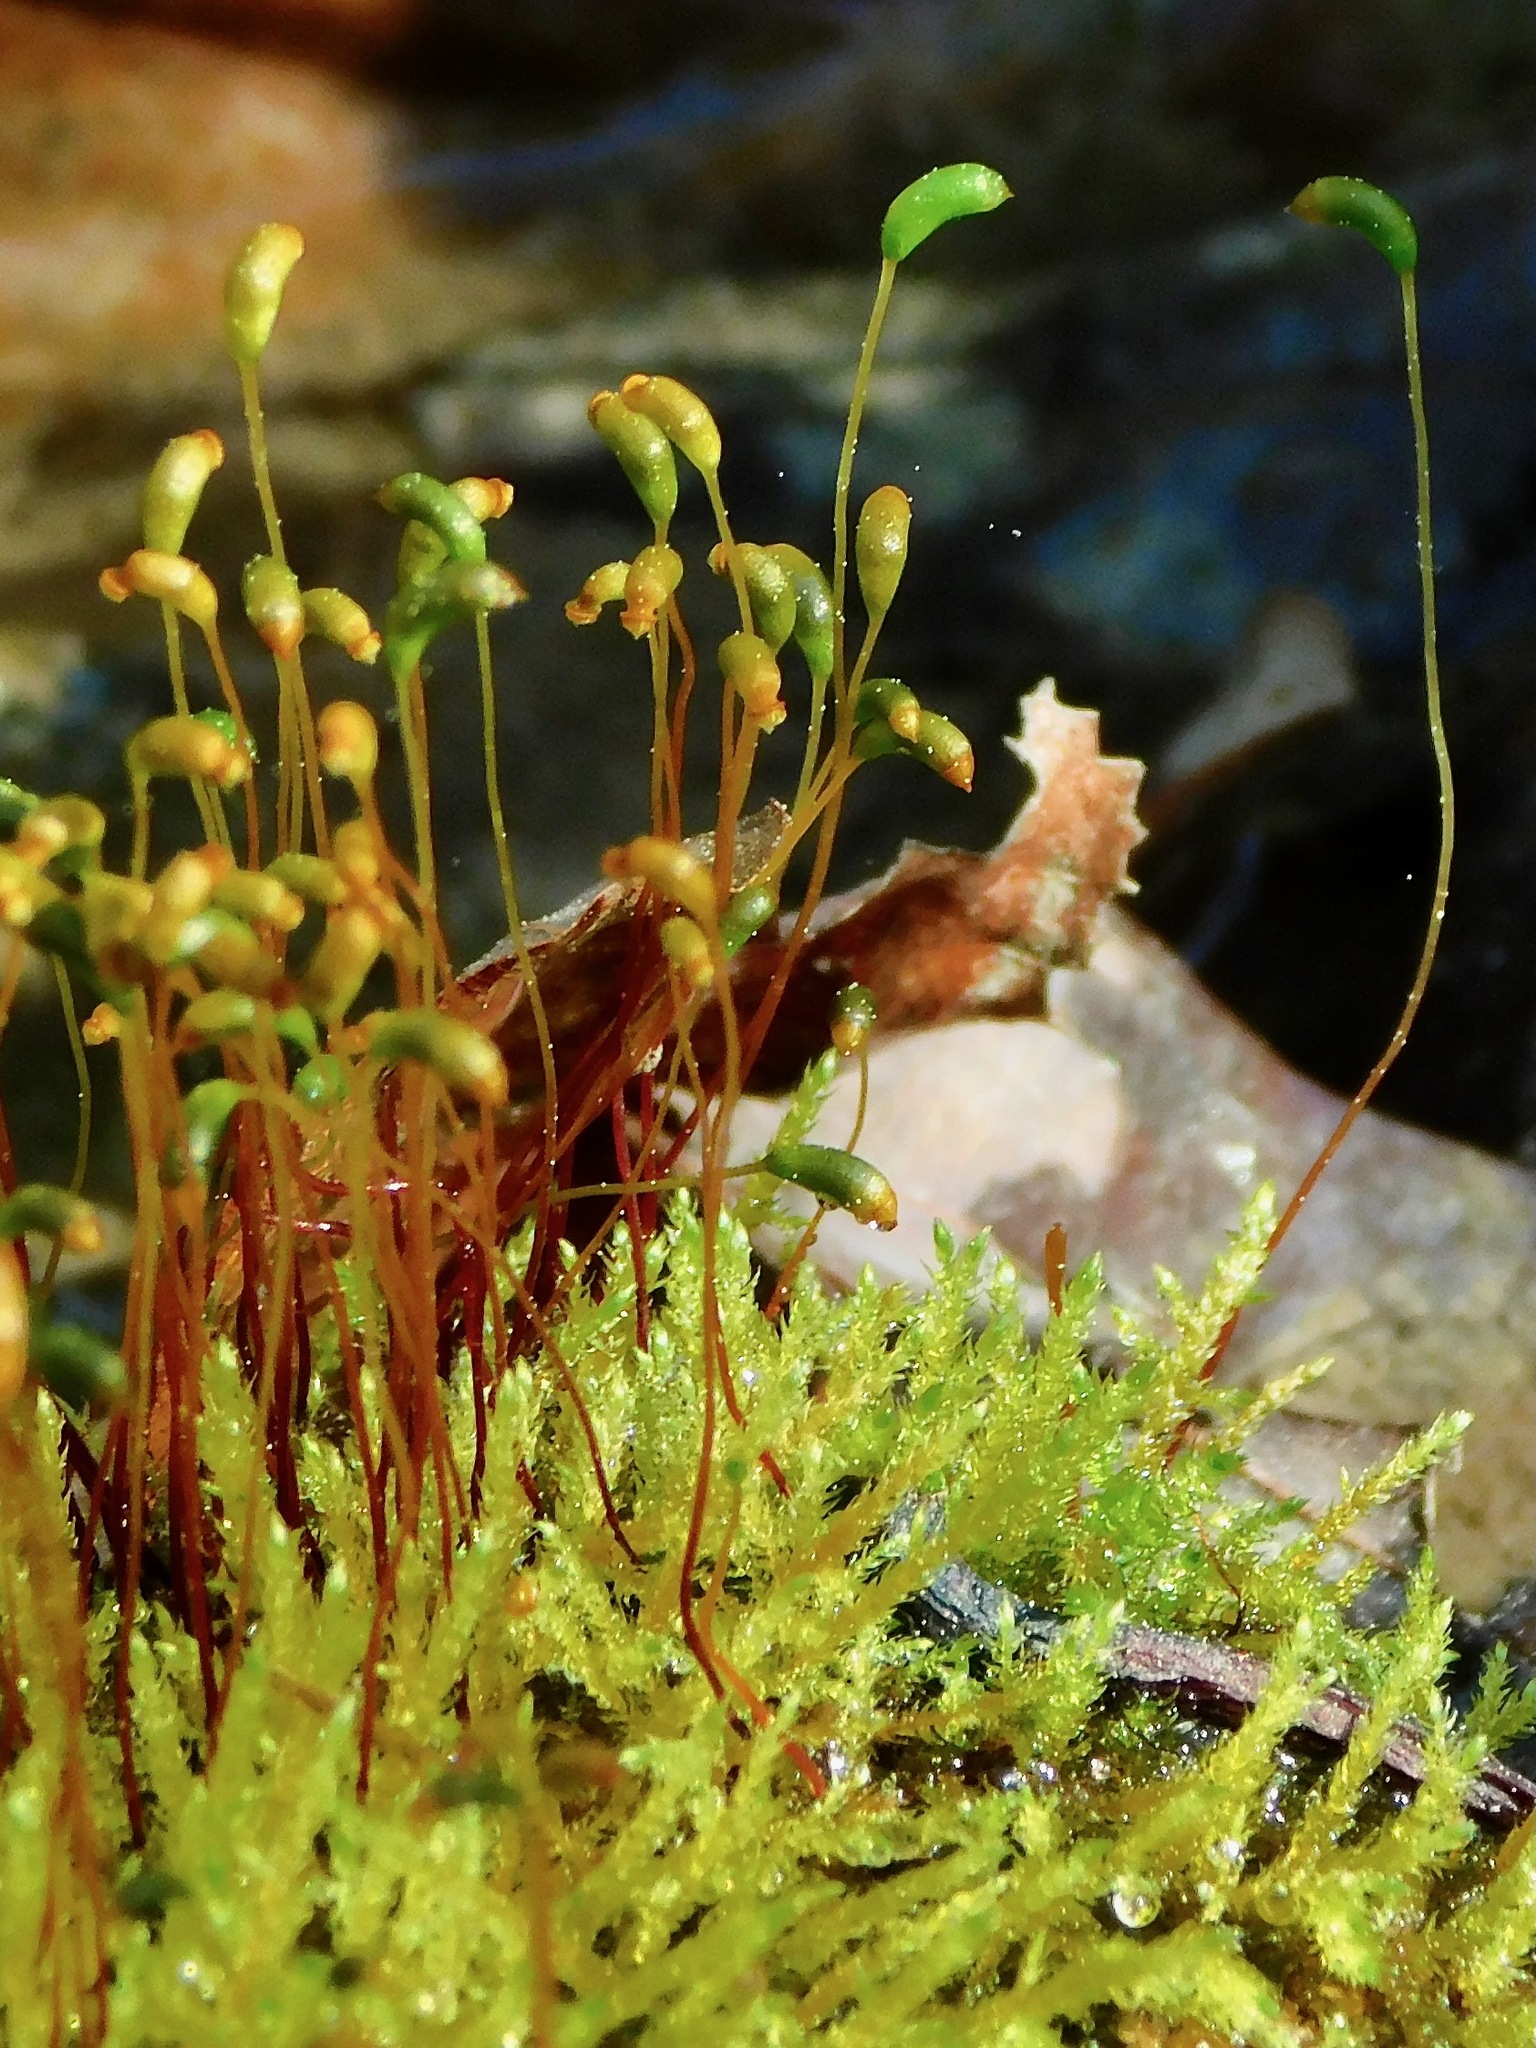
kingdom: Plantae
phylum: Bryophyta
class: Bryopsida
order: Hypnales
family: Amblystegiaceae
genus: Cratoneuron
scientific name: Cratoneuron filicinum
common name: Fern-leaved hook moss
